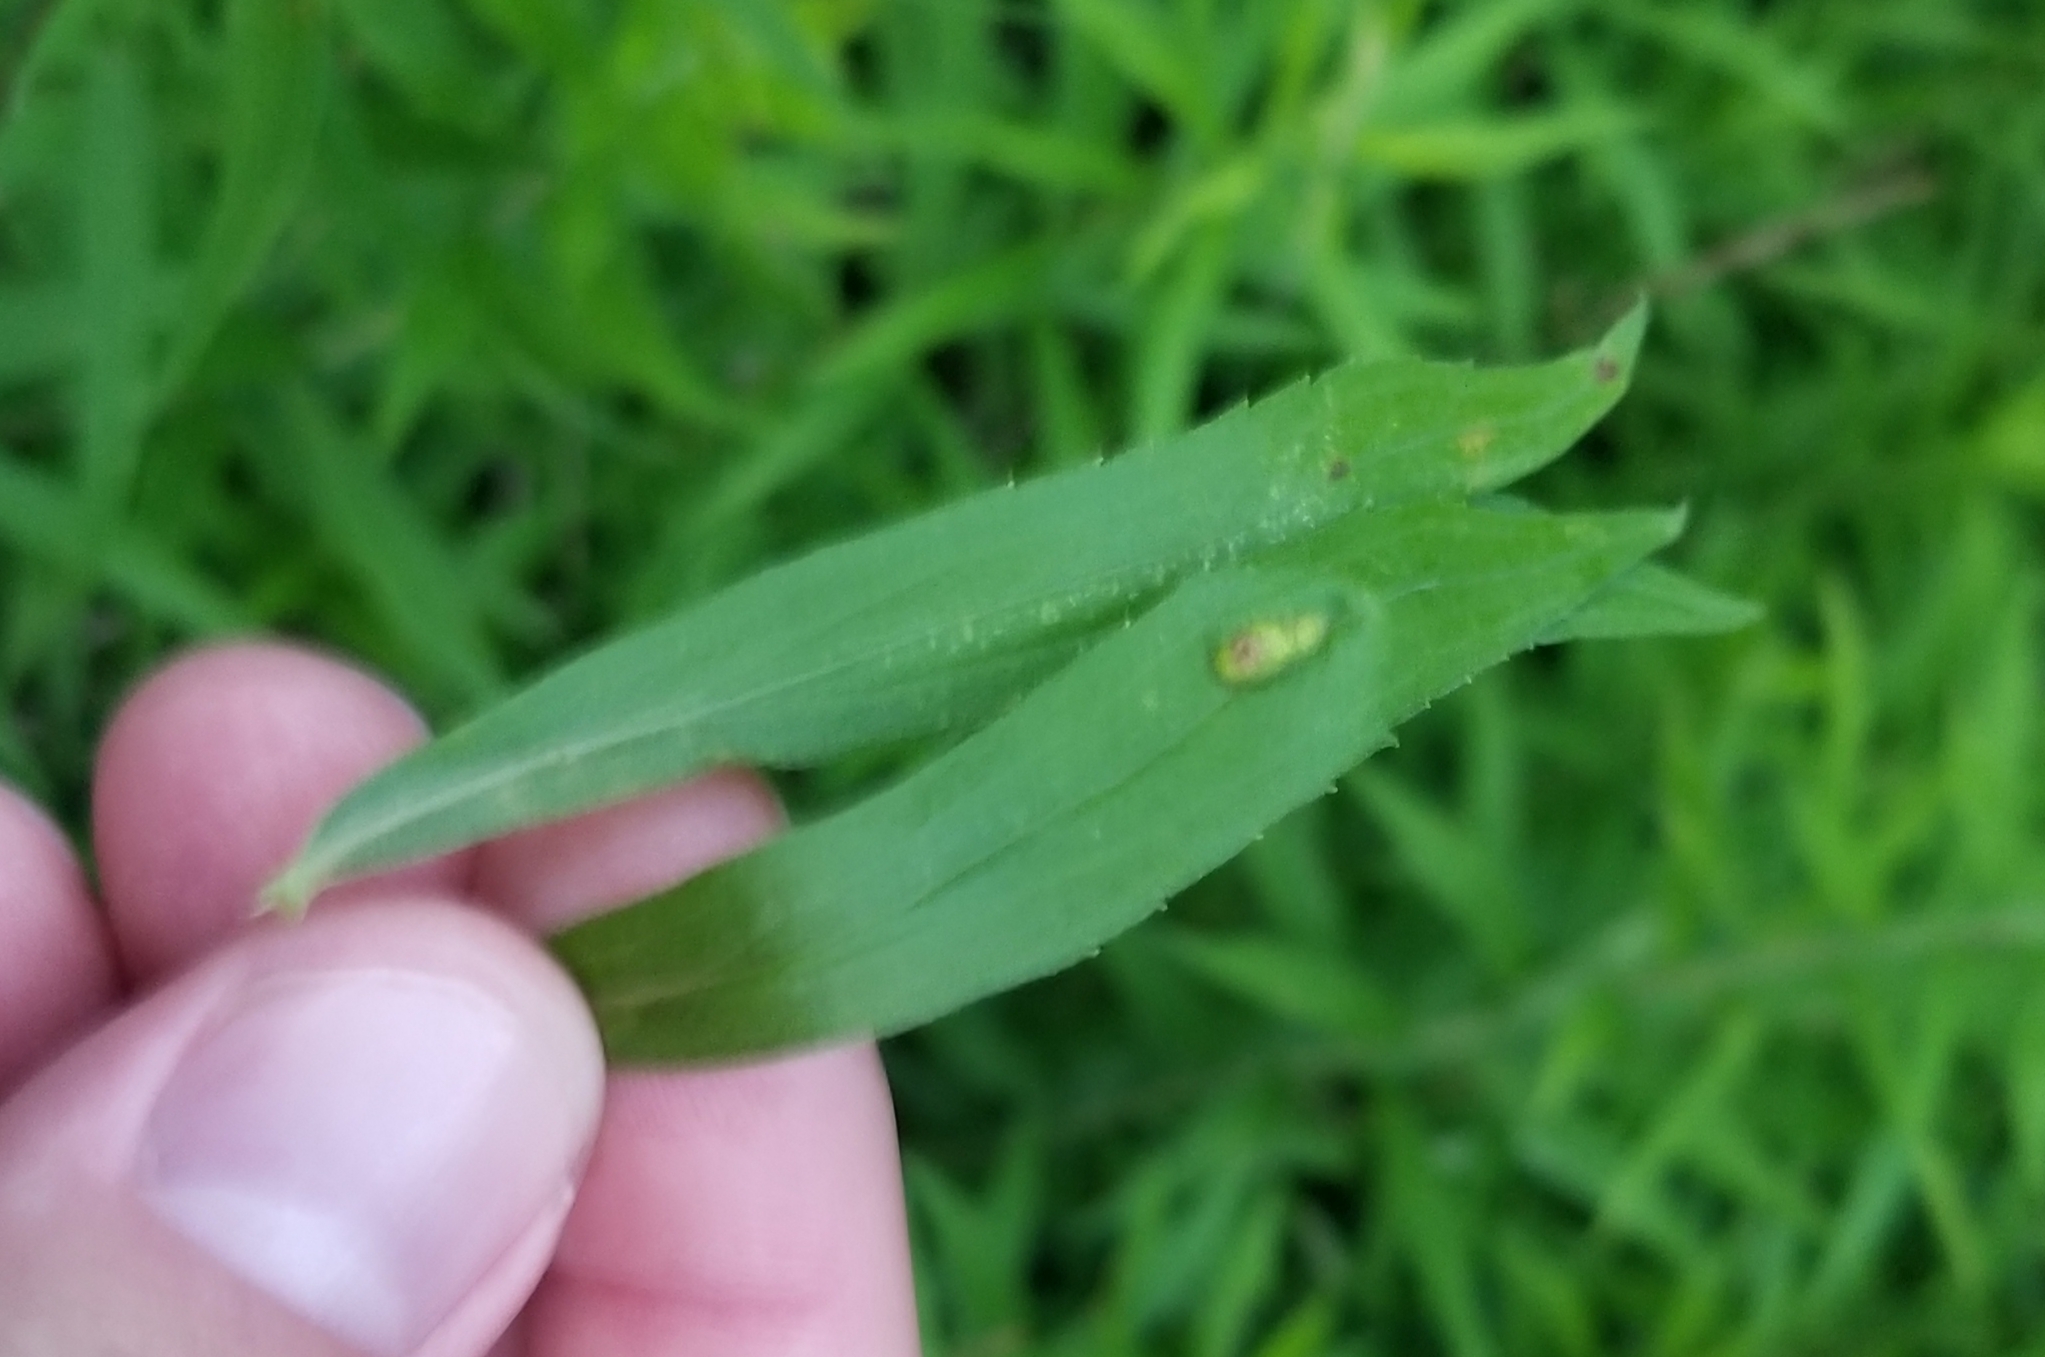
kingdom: Animalia
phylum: Arthropoda
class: Insecta
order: Diptera
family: Cecidomyiidae
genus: Asphondylia
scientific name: Asphondylia solidaginis
